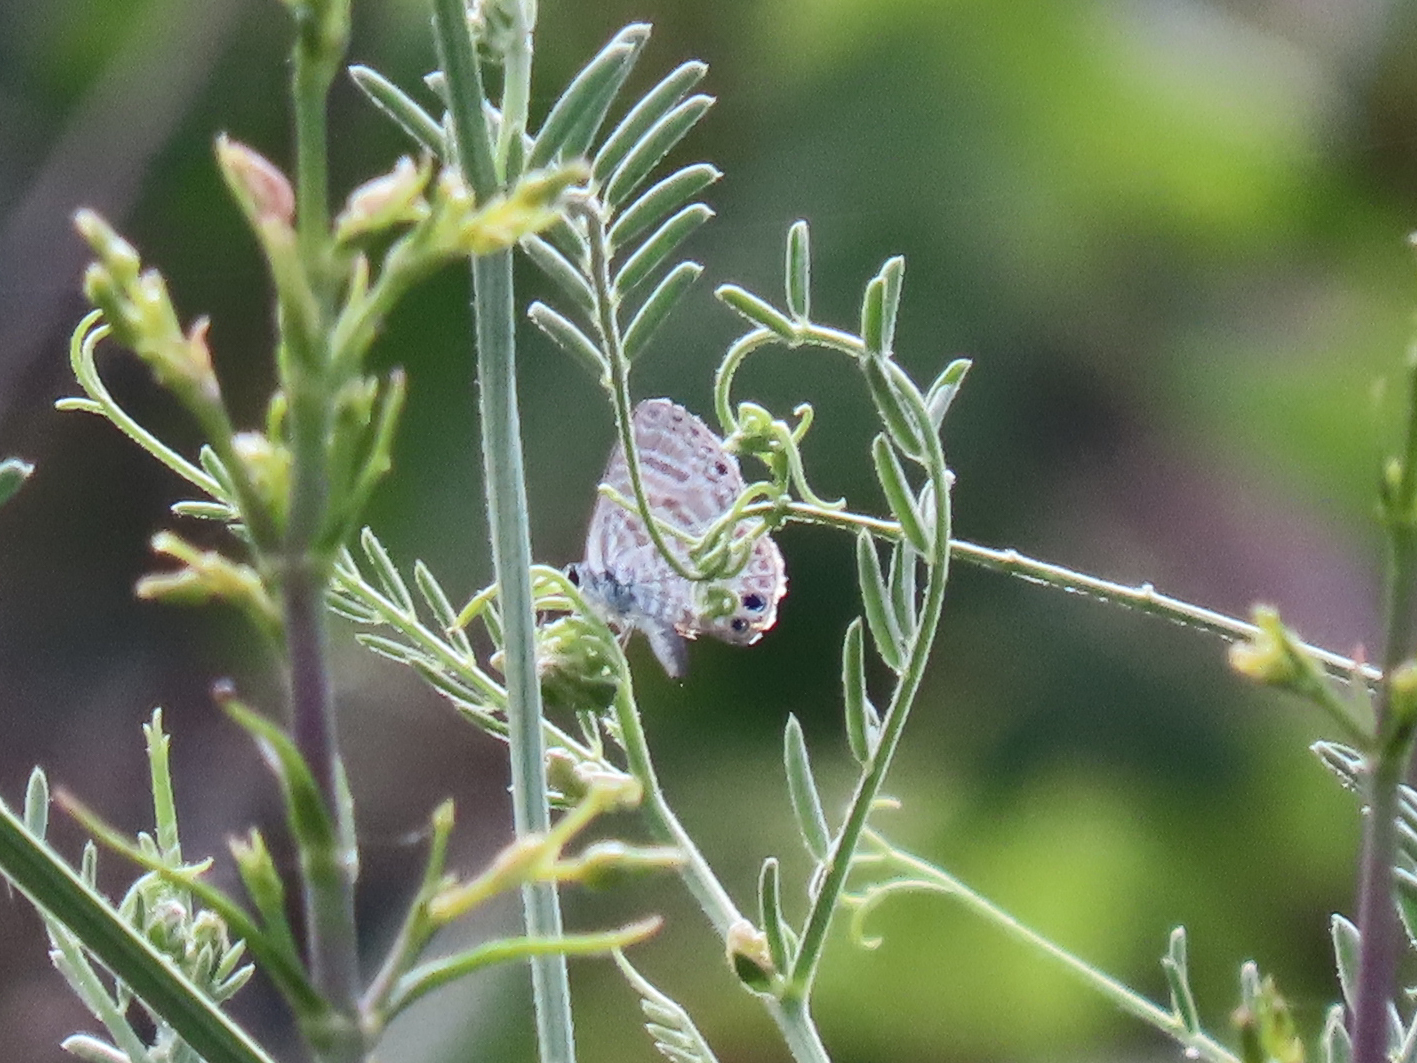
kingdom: Animalia
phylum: Arthropoda
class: Insecta
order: Lepidoptera
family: Lycaenidae
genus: Leptotes
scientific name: Leptotes marina
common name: Marine blue
